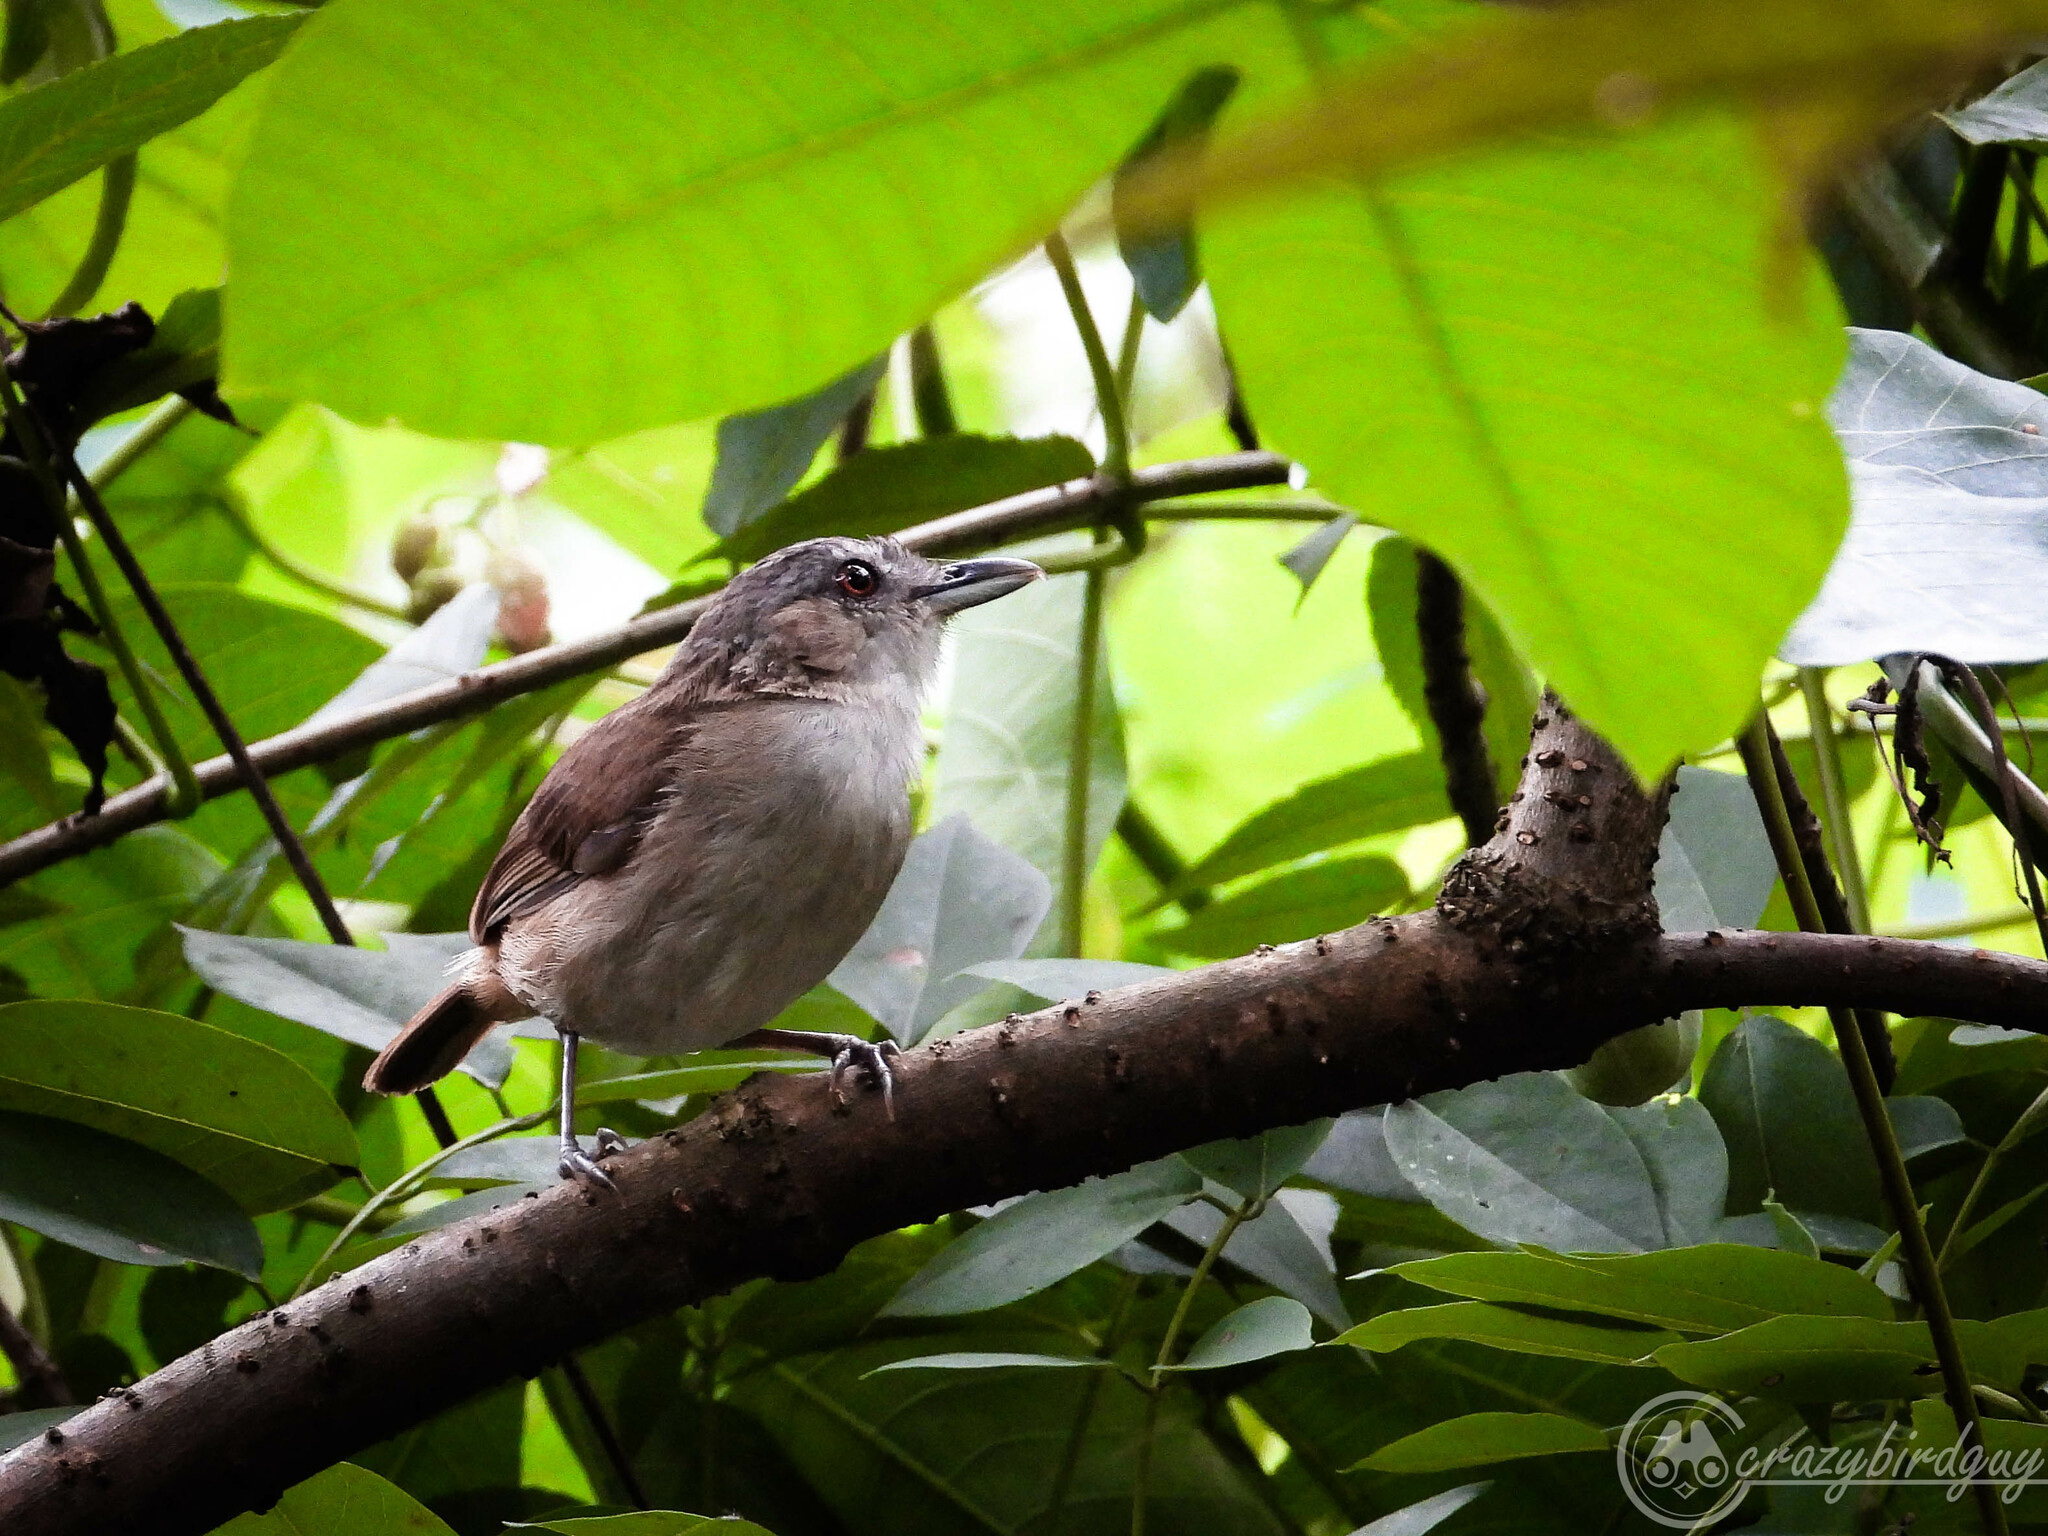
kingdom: Animalia
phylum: Chordata
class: Aves
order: Passeriformes
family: Pellorneidae
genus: Malacocincla
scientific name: Malacocincla sepiaria
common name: Horsfield's babbler
